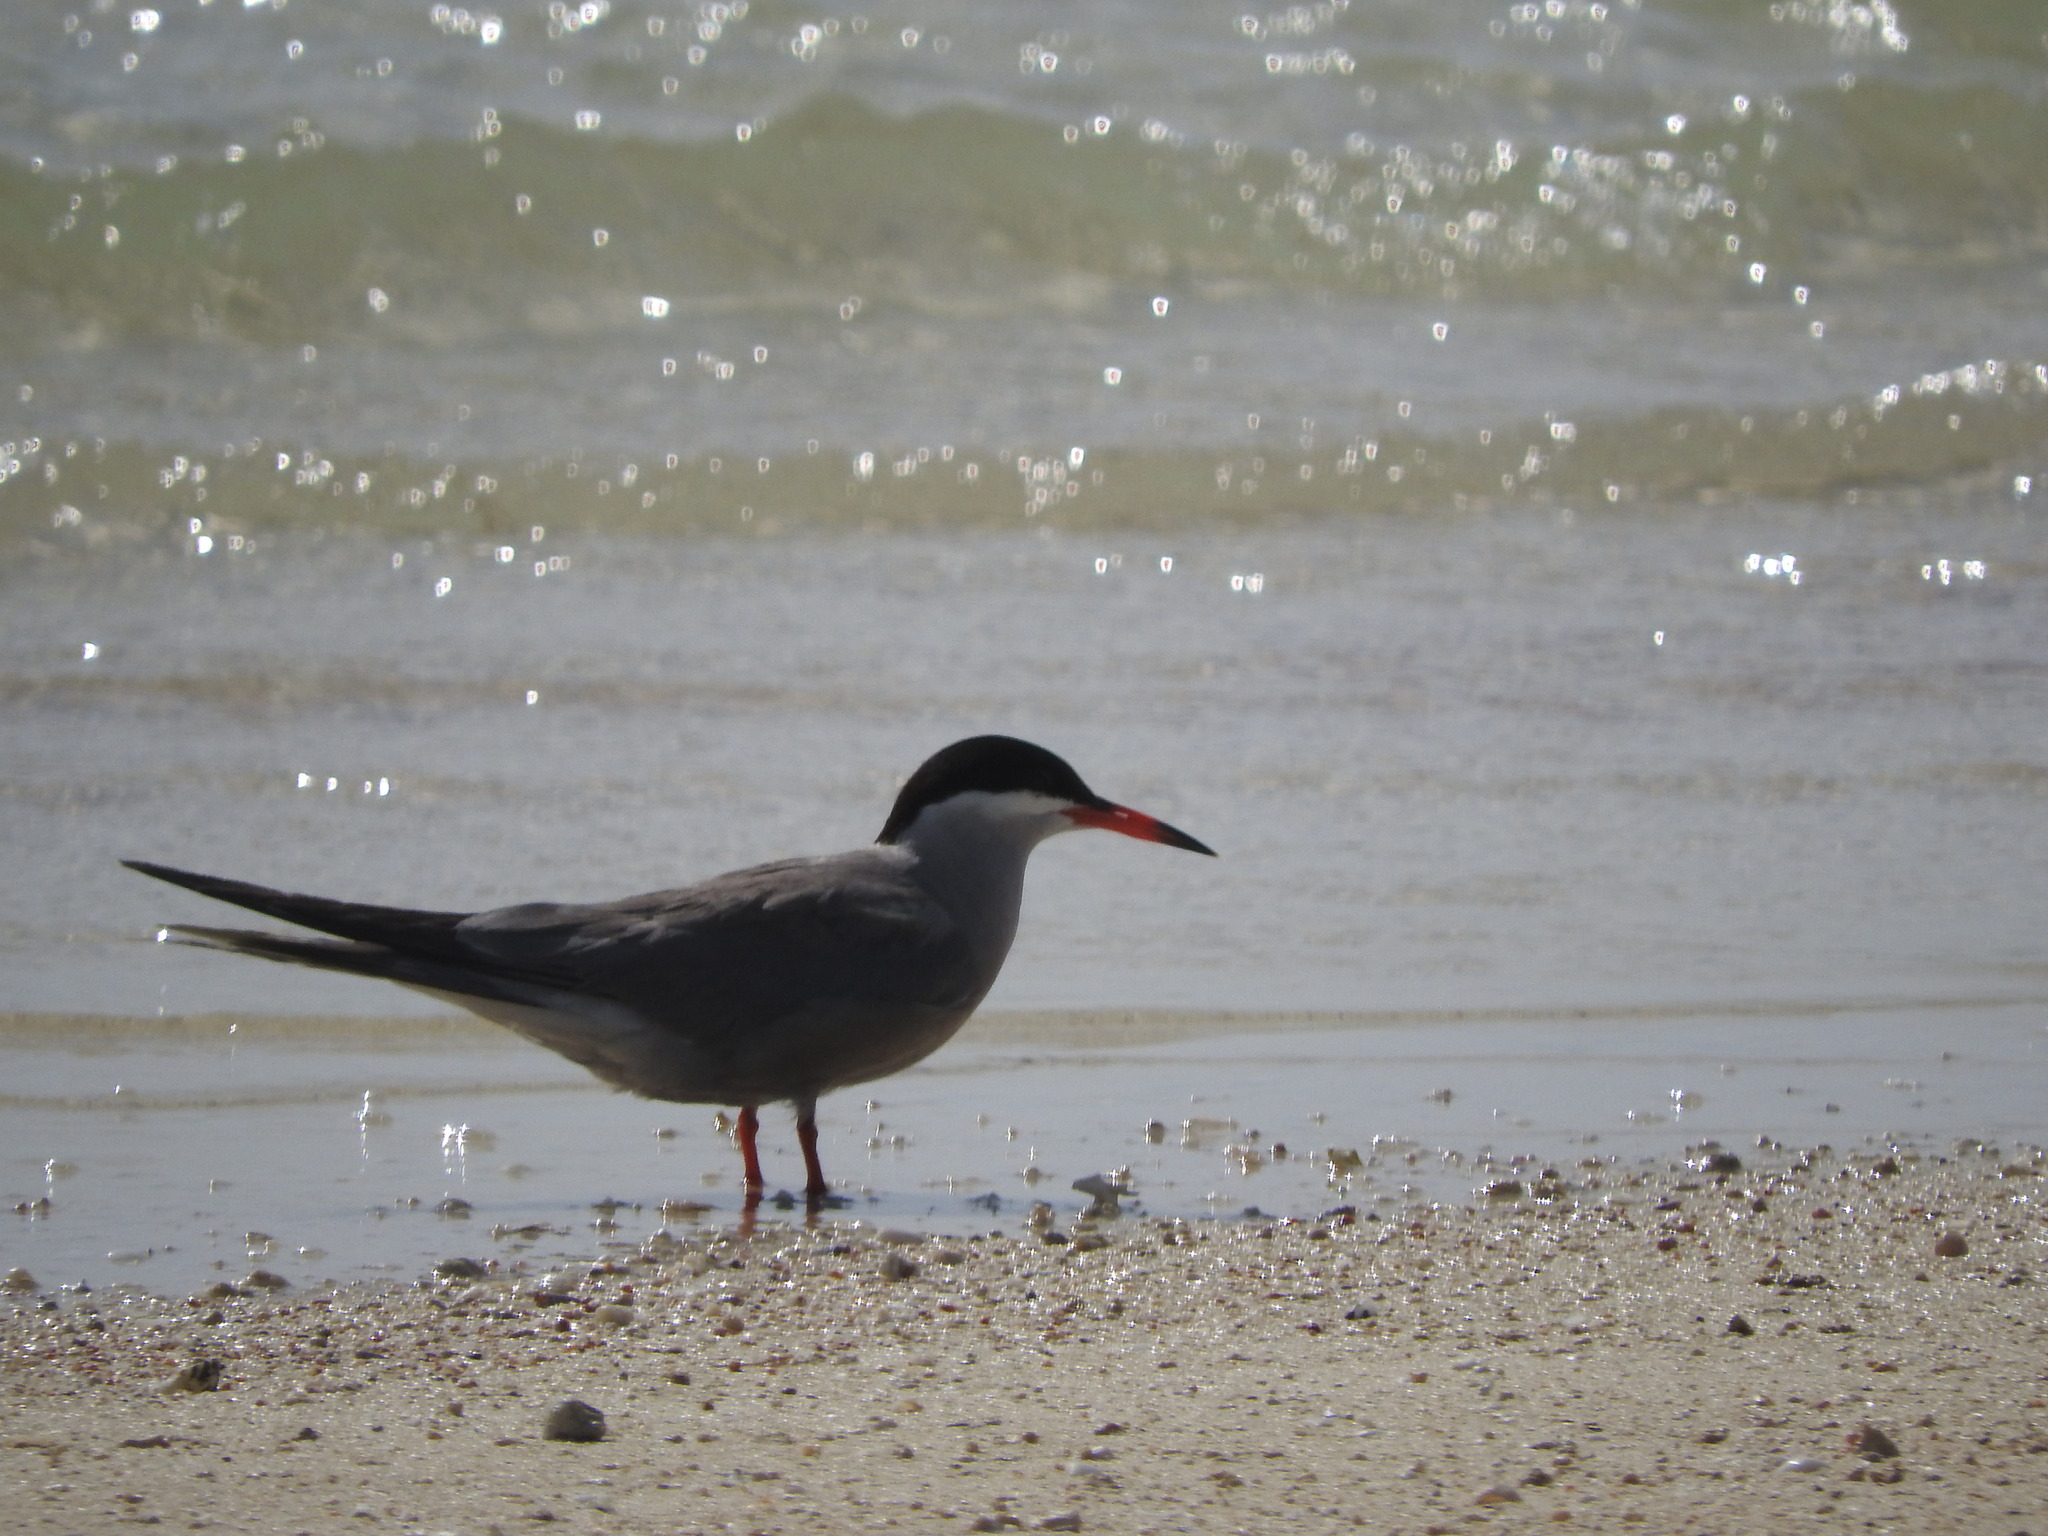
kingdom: Animalia
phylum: Chordata
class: Aves
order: Charadriiformes
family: Laridae
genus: Sterna
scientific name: Sterna repressa
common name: White-cheeked tern
